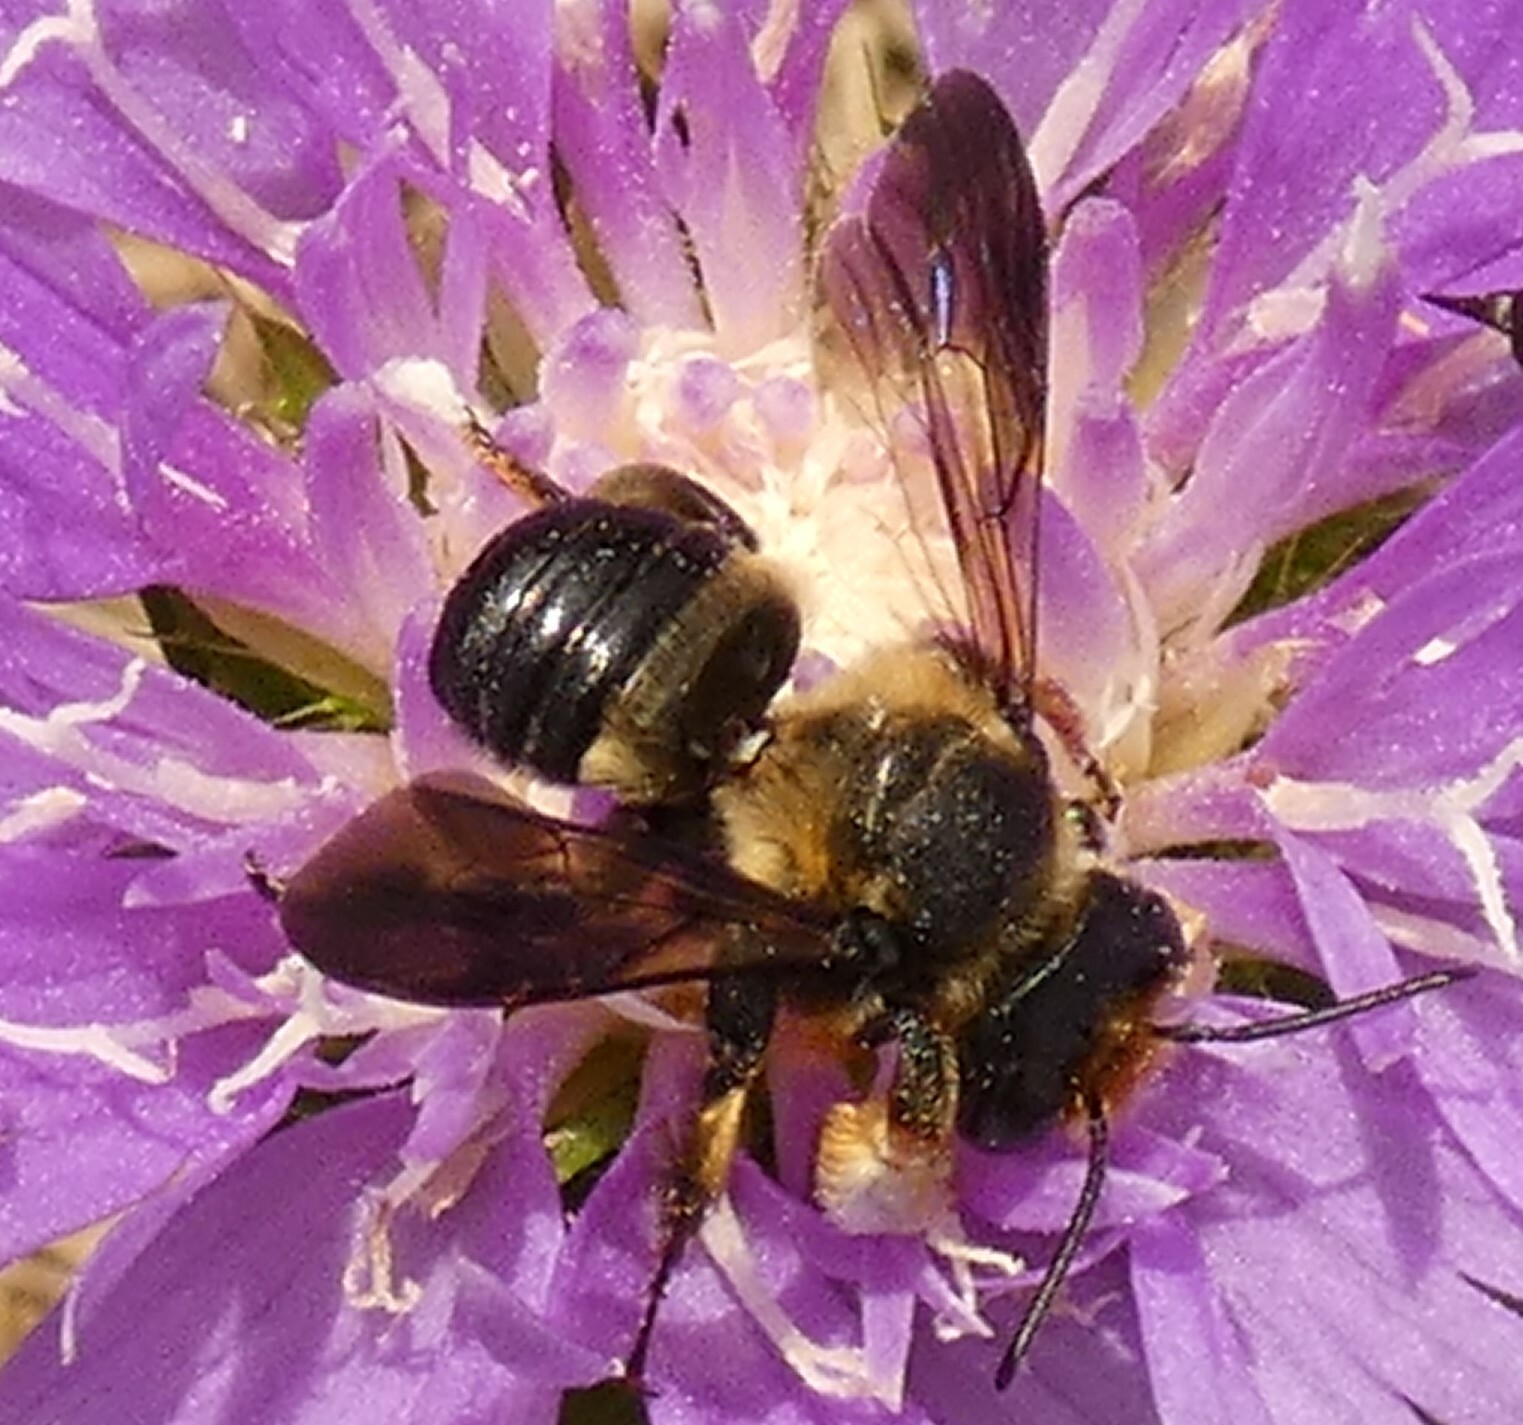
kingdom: Animalia
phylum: Arthropoda
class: Insecta
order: Hymenoptera
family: Megachilidae
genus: Megachile
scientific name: Megachile xylocopoides
